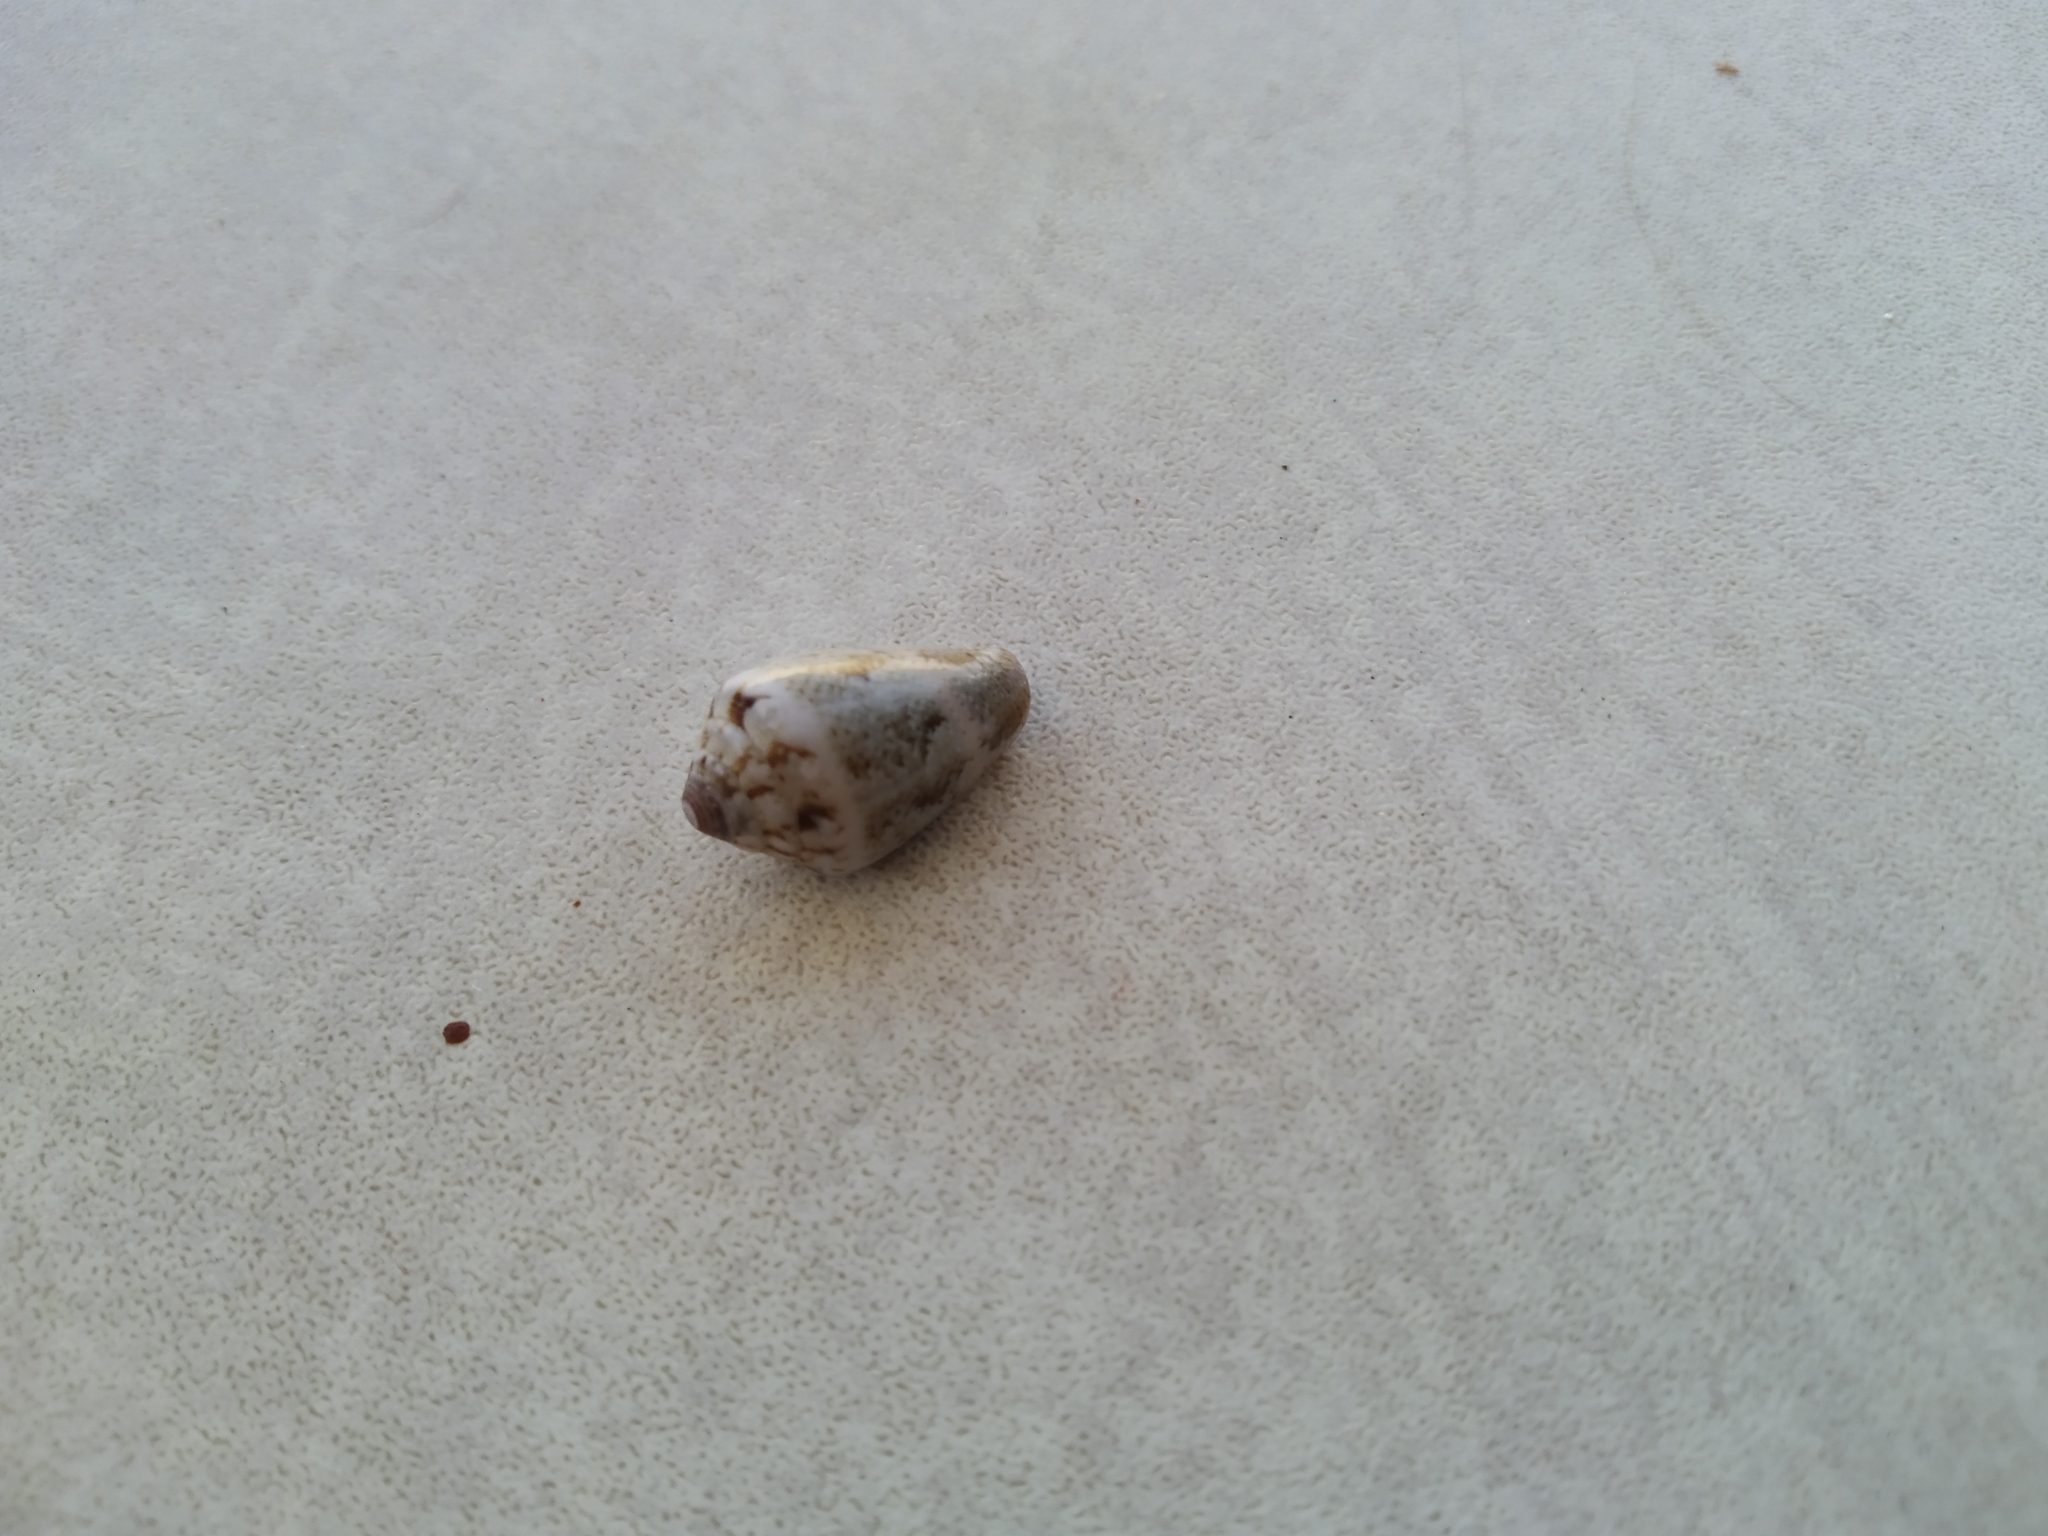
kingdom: Animalia
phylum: Mollusca
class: Gastropoda
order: Neogastropoda
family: Conidae
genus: Conus
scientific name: Conus ventricosus
